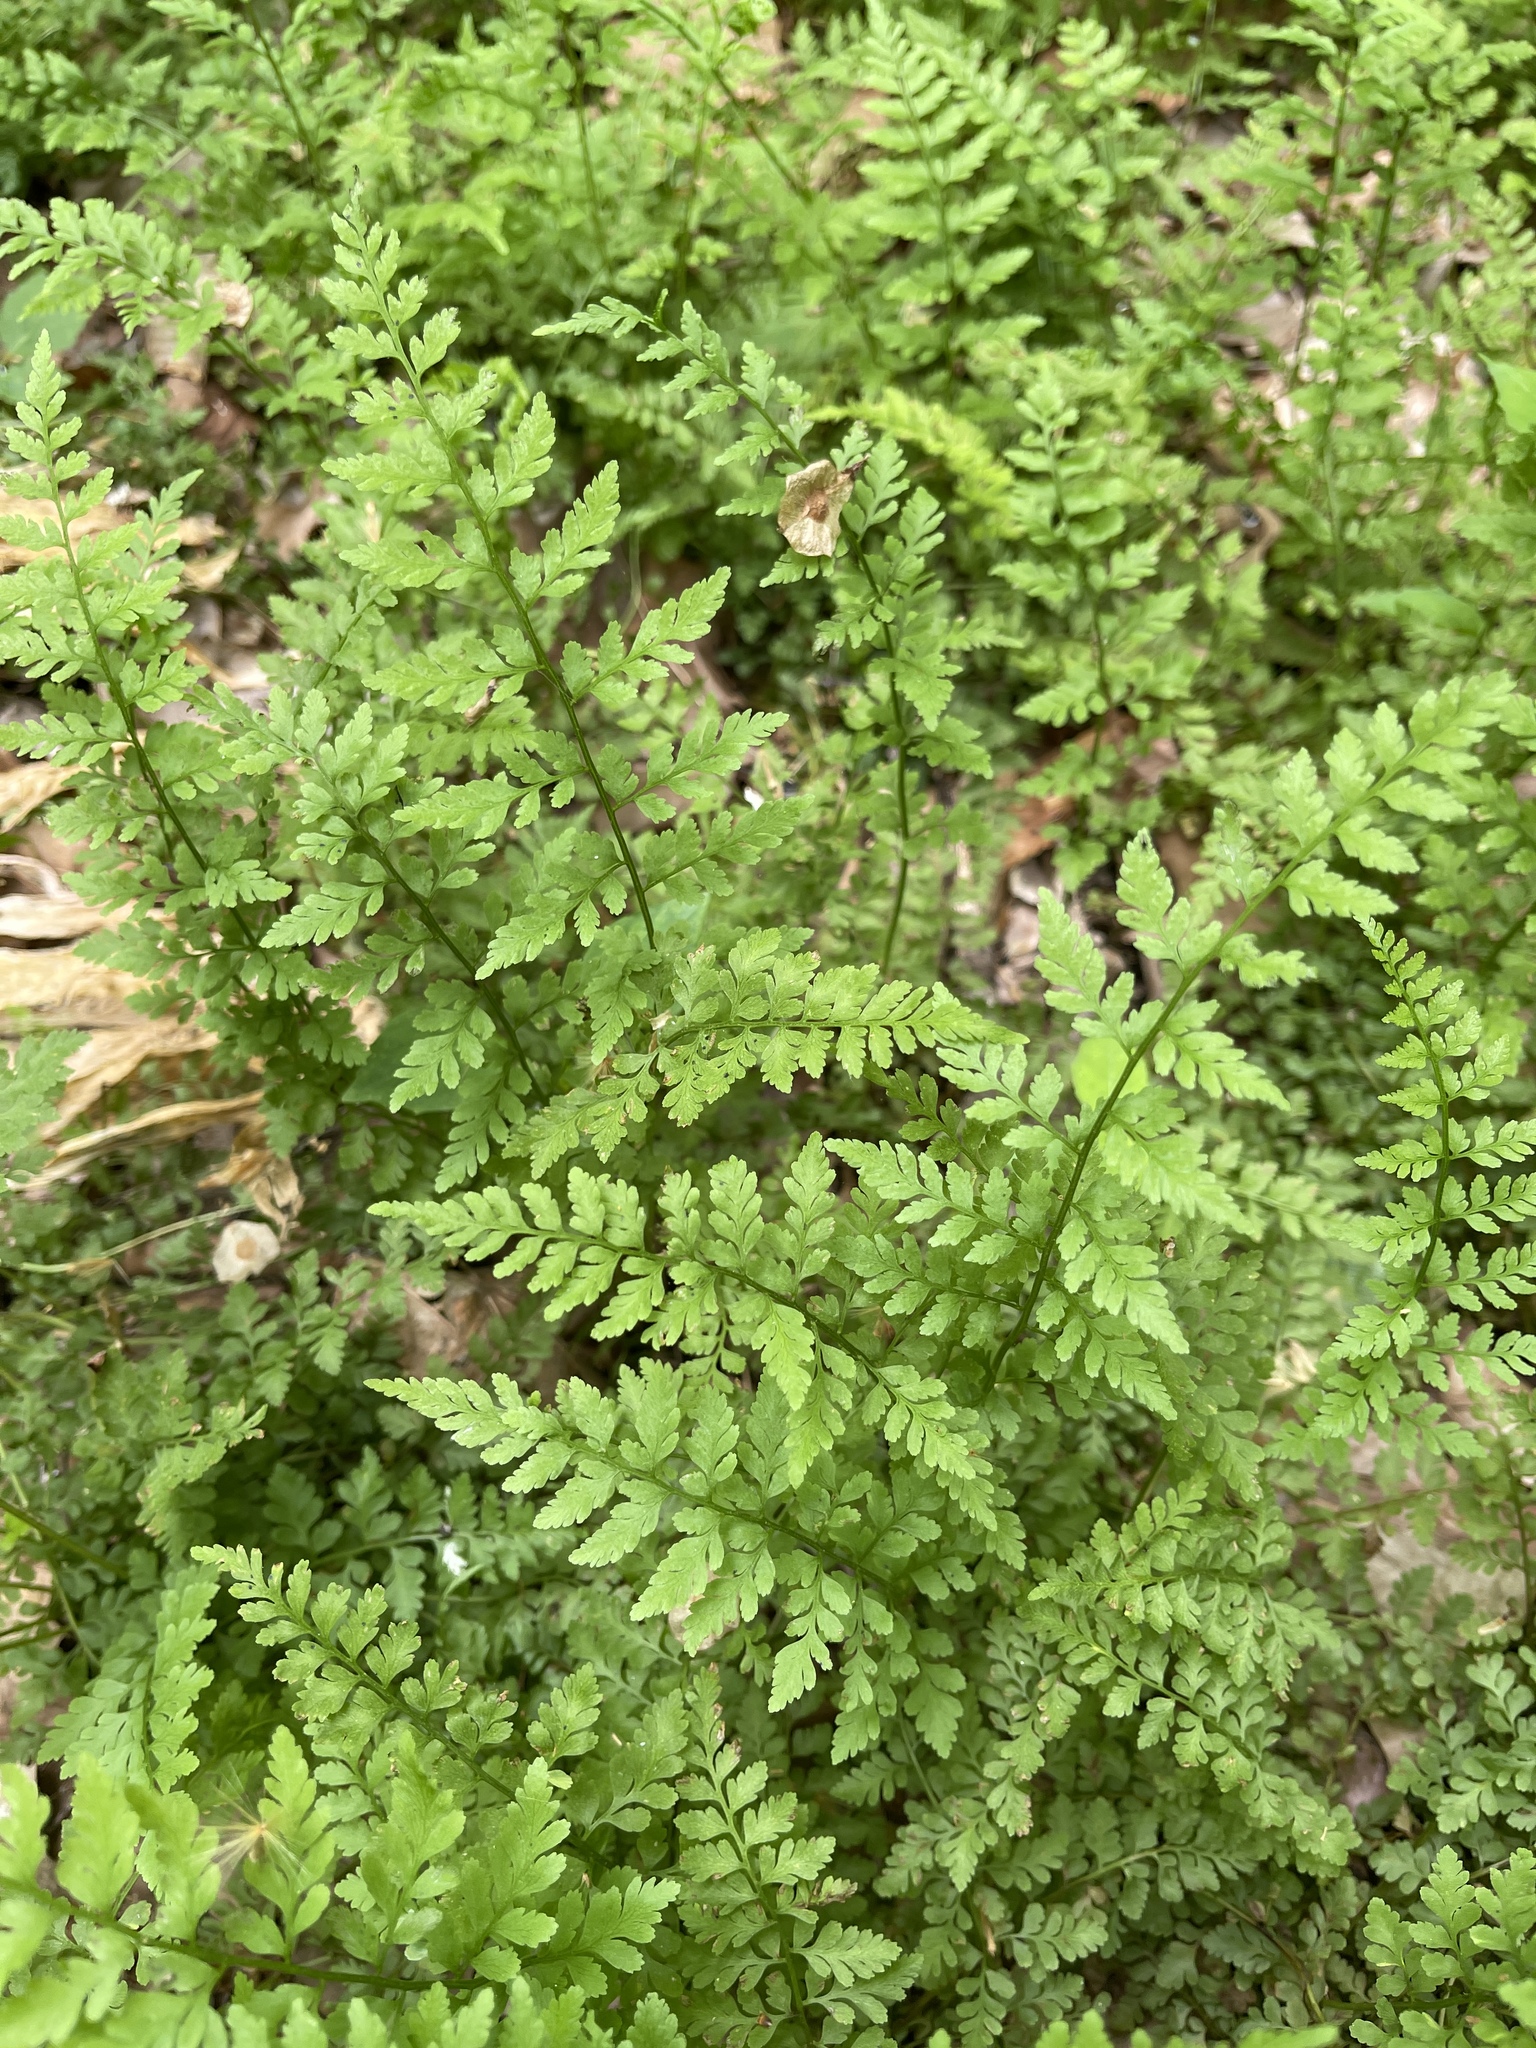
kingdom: Plantae
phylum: Tracheophyta
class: Polypodiopsida
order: Polypodiales
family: Cystopteridaceae
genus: Cystopteris
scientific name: Cystopteris protrusa
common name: Lowland brittle fern
